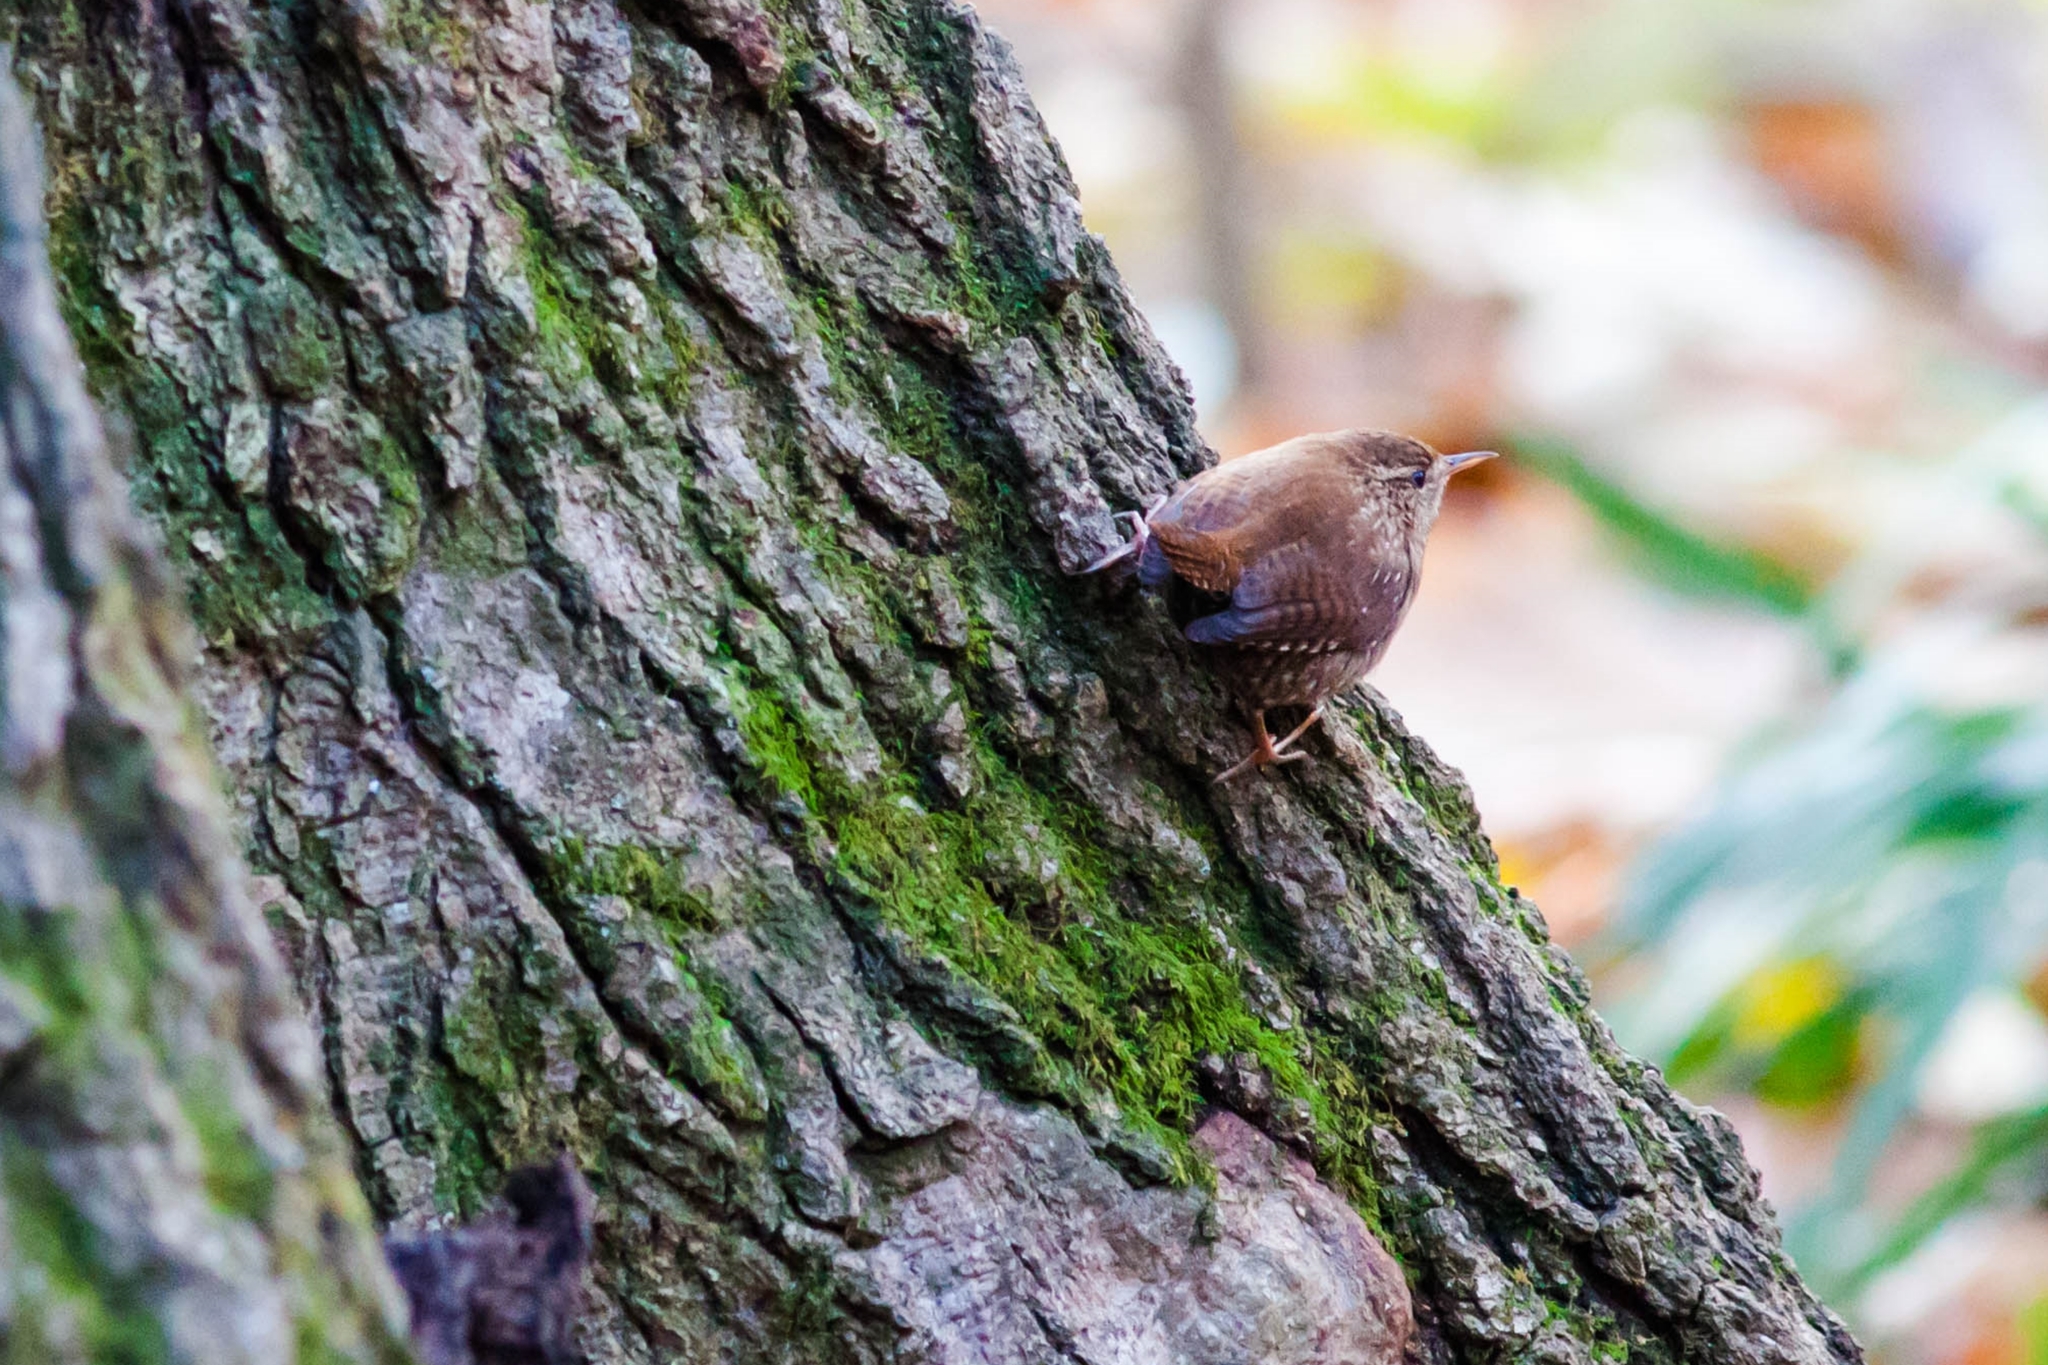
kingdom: Animalia
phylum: Chordata
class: Aves
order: Passeriformes
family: Troglodytidae
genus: Troglodytes
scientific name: Troglodytes hiemalis
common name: Winter wren
